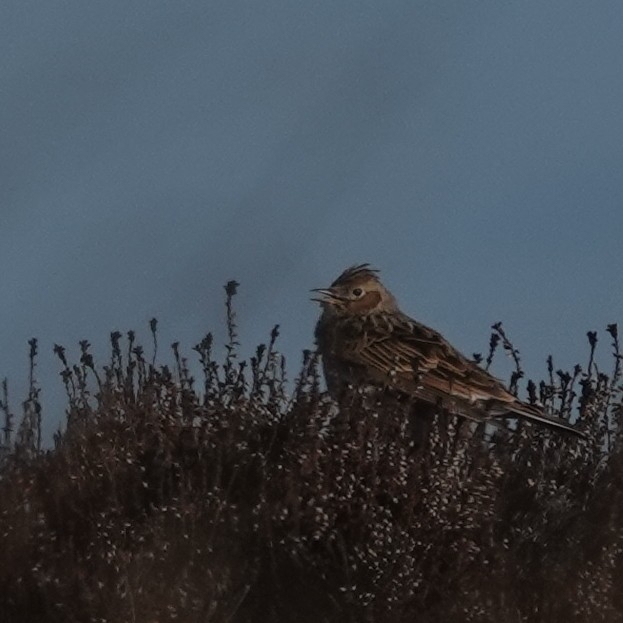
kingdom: Animalia
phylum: Chordata
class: Aves
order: Passeriformes
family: Alaudidae
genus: Alauda
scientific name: Alauda arvensis
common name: Eurasian skylark
